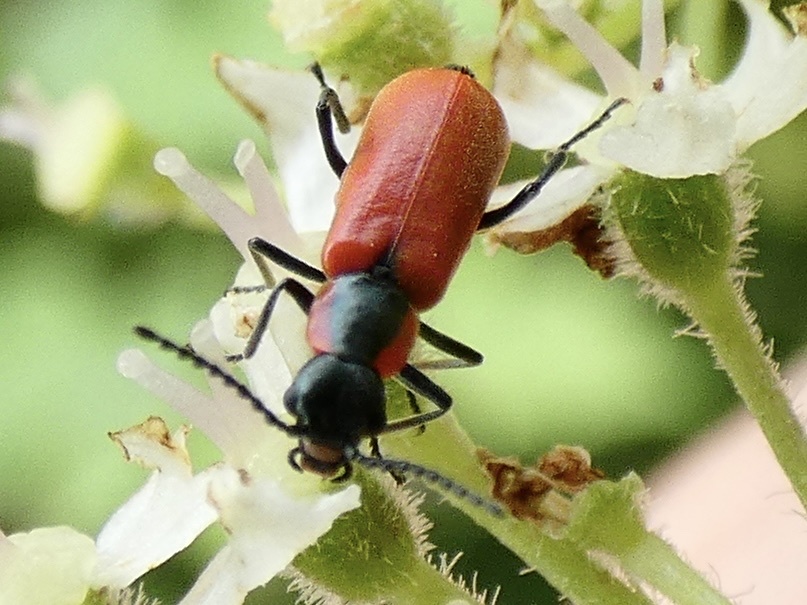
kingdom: Animalia
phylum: Arthropoda
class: Insecta
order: Coleoptera
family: Melyridae
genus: Anthocomus
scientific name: Anthocomus rufus
